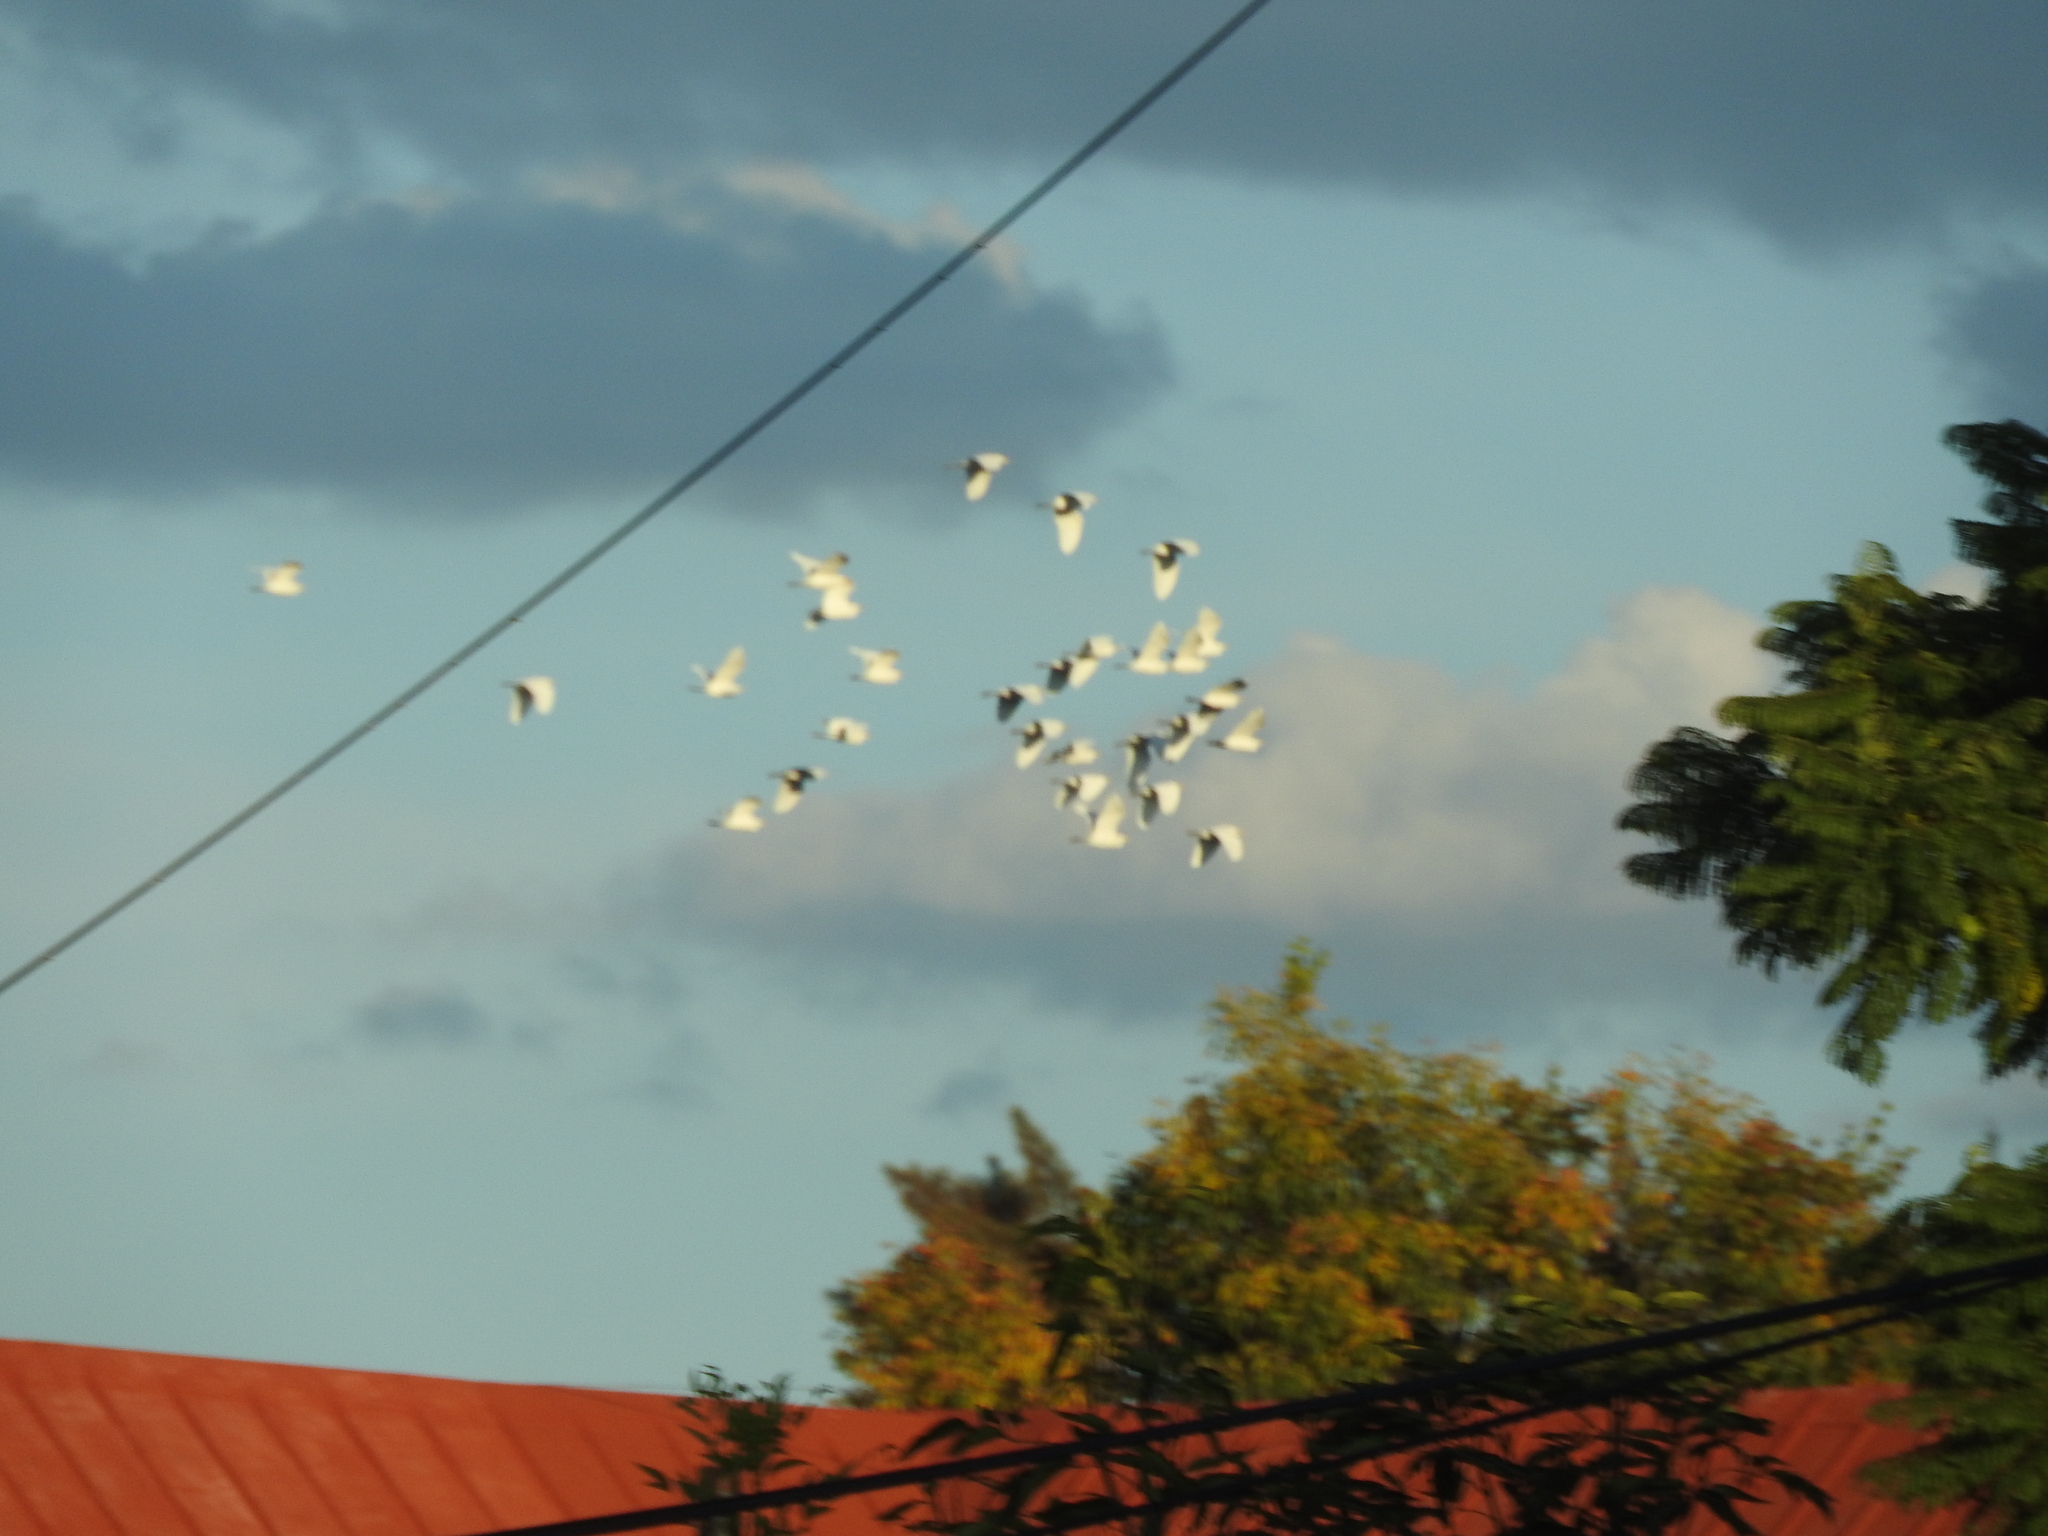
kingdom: Animalia
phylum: Chordata
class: Aves
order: Pelecaniformes
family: Ardeidae
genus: Bubulcus
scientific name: Bubulcus ibis
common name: Cattle egret
